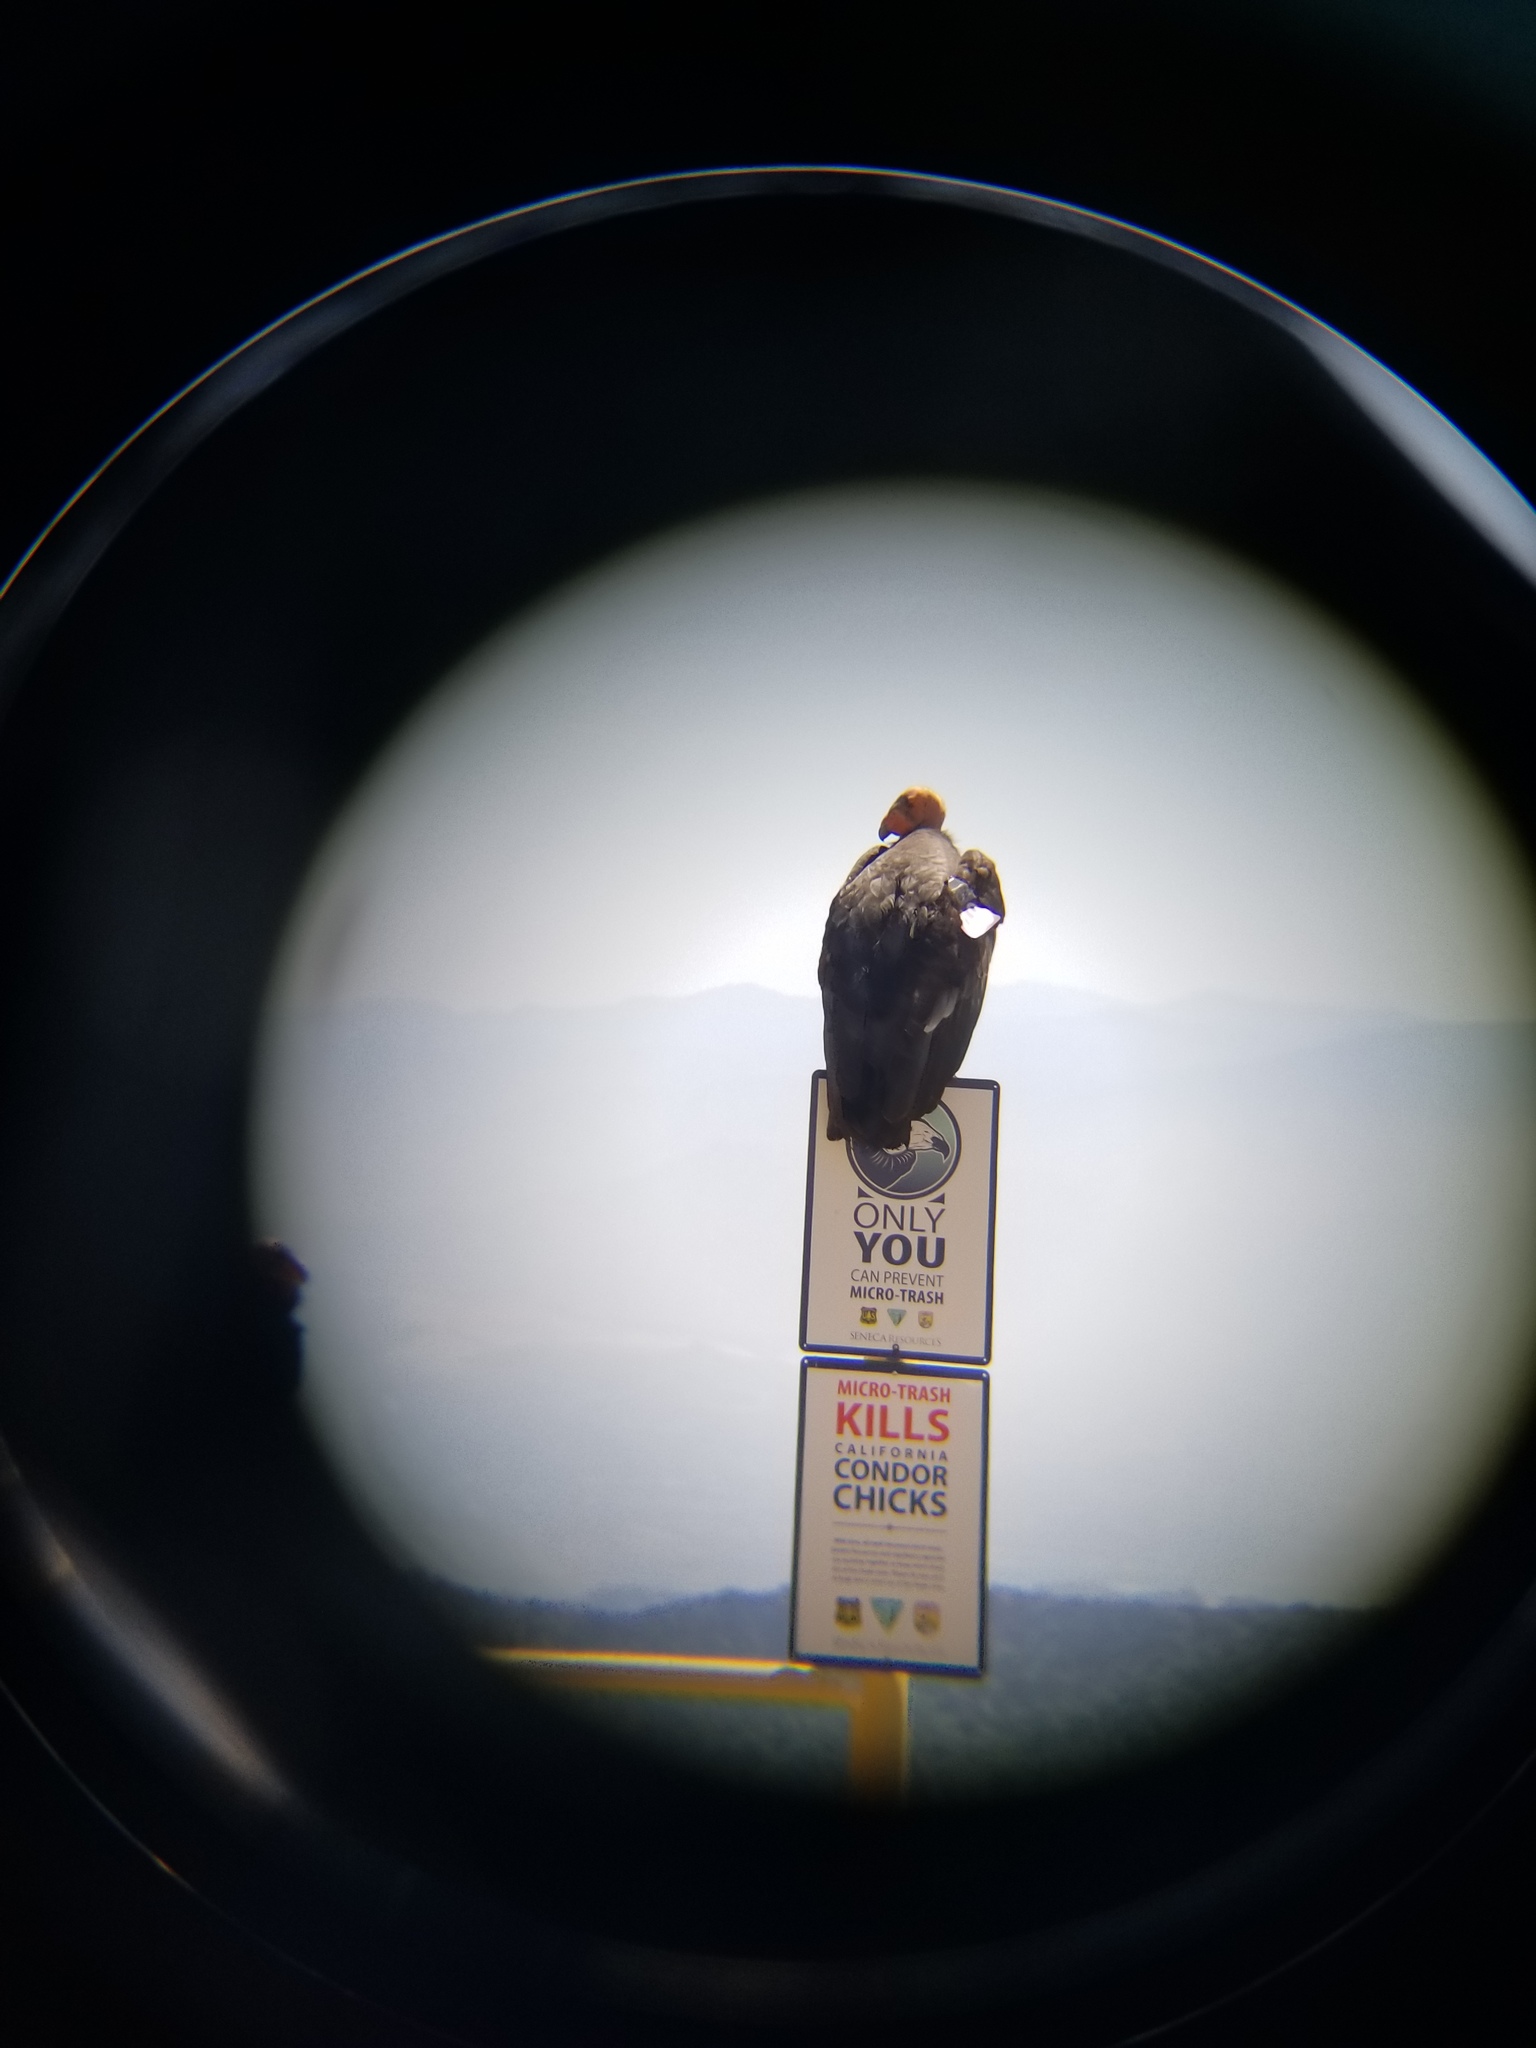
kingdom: Animalia
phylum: Chordata
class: Aves
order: Accipitriformes
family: Cathartidae
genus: Gymnogyps
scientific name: Gymnogyps californianus
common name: California condor
